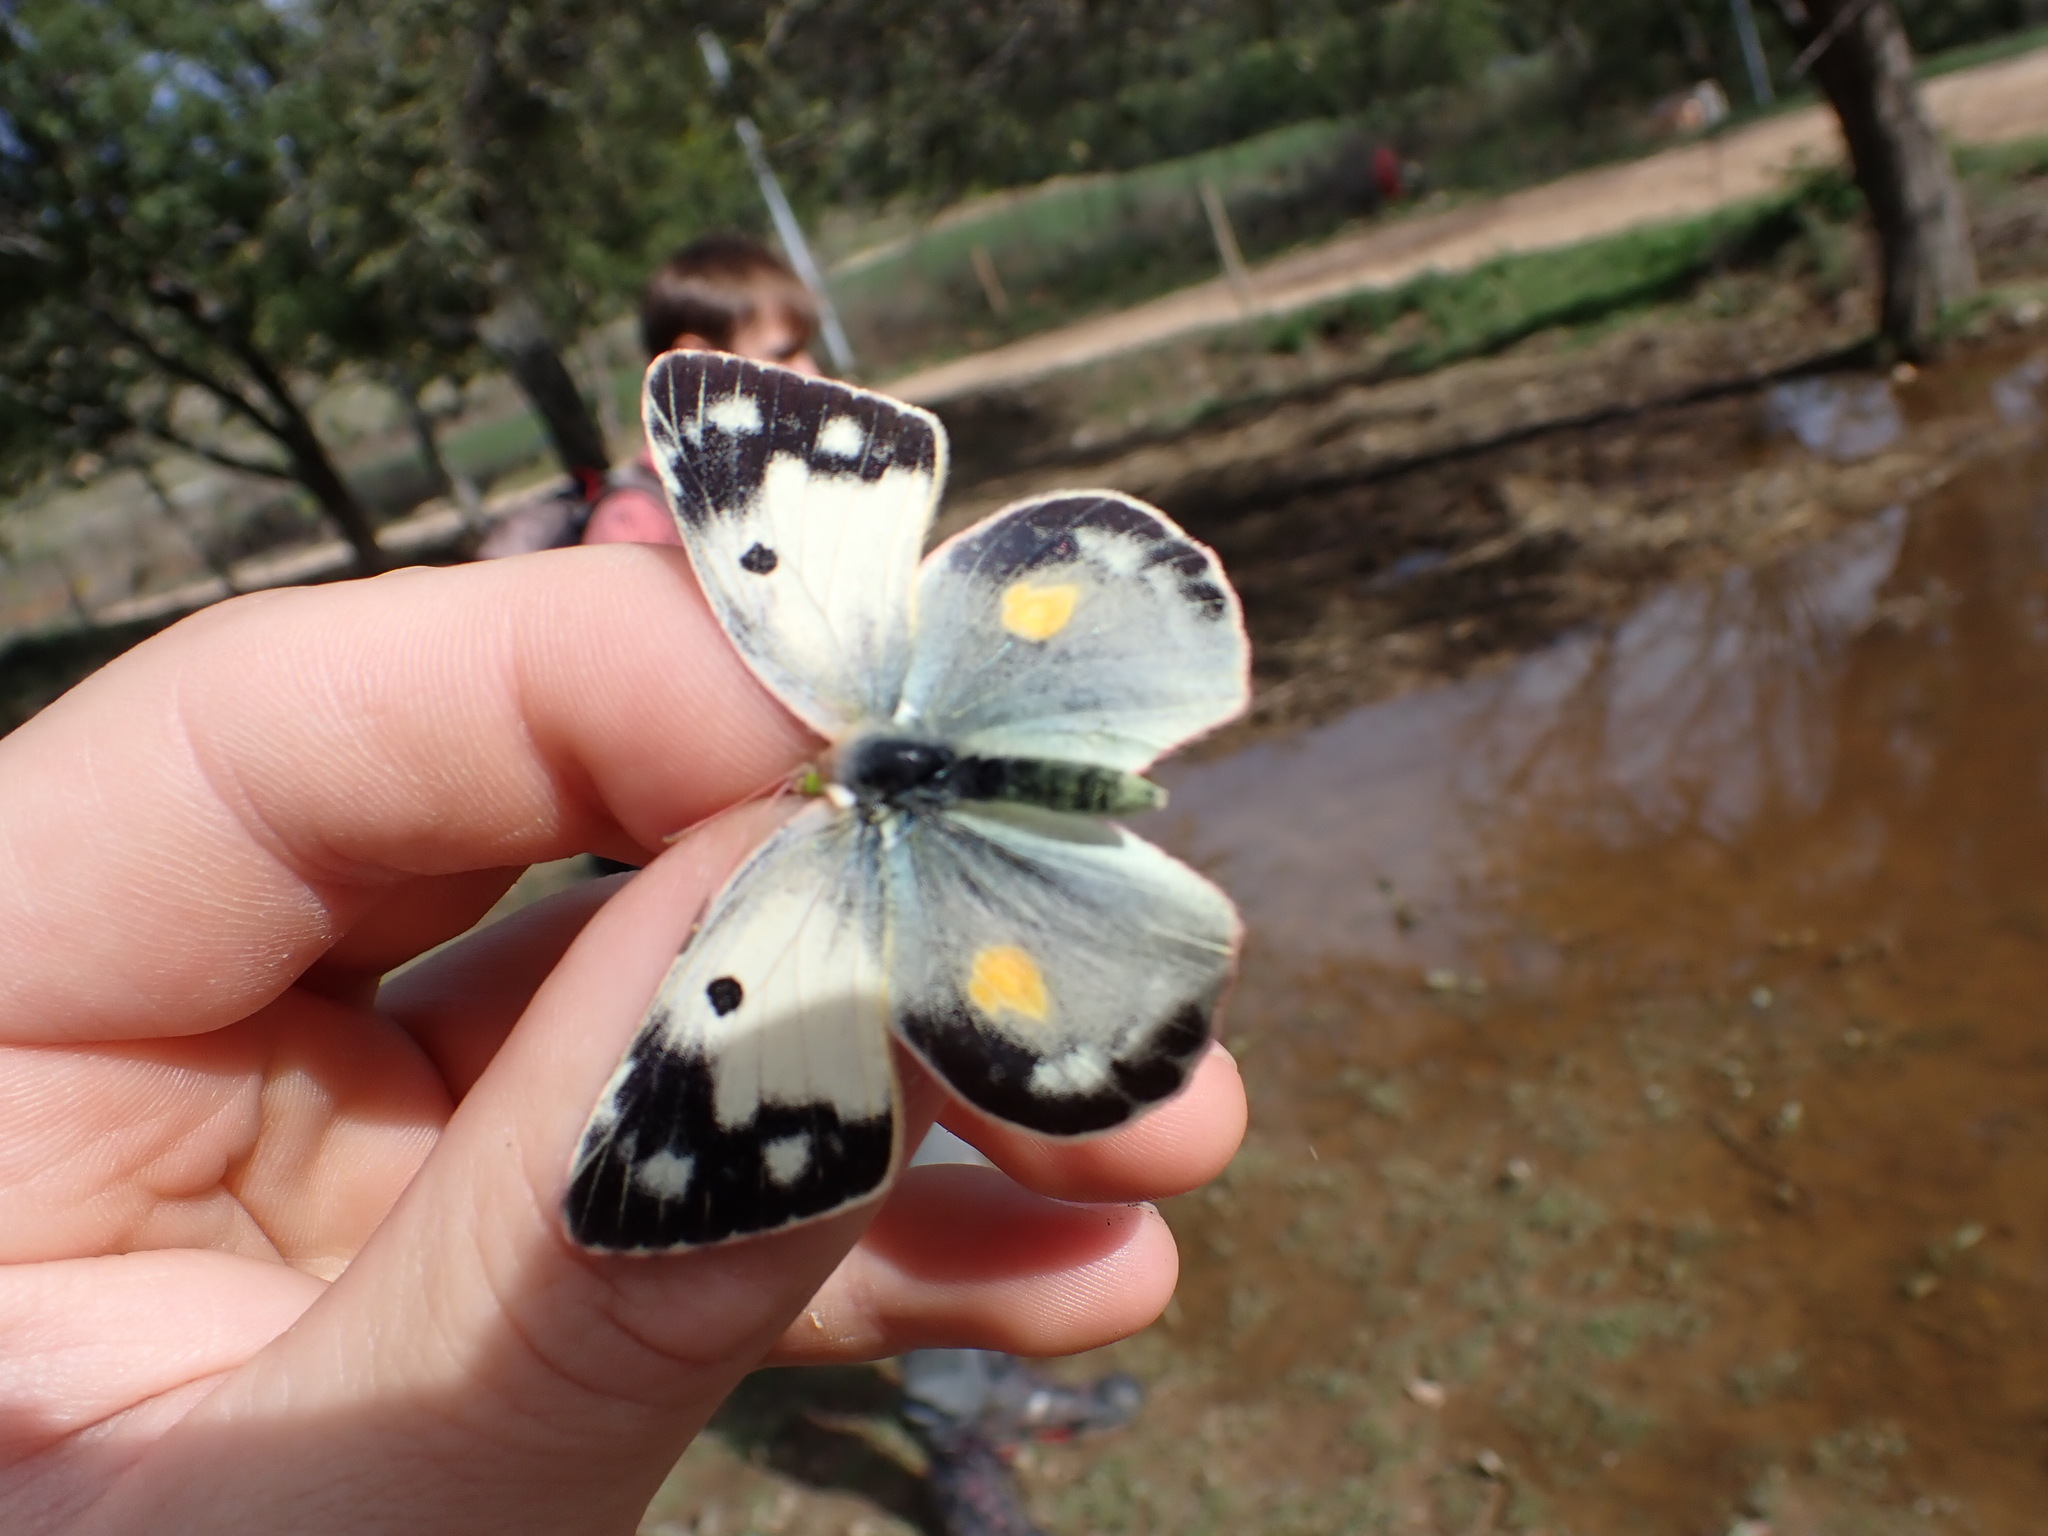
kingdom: Animalia
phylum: Arthropoda
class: Insecta
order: Lepidoptera
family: Pieridae
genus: Colias
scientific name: Colias croceus
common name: Clouded yellow
